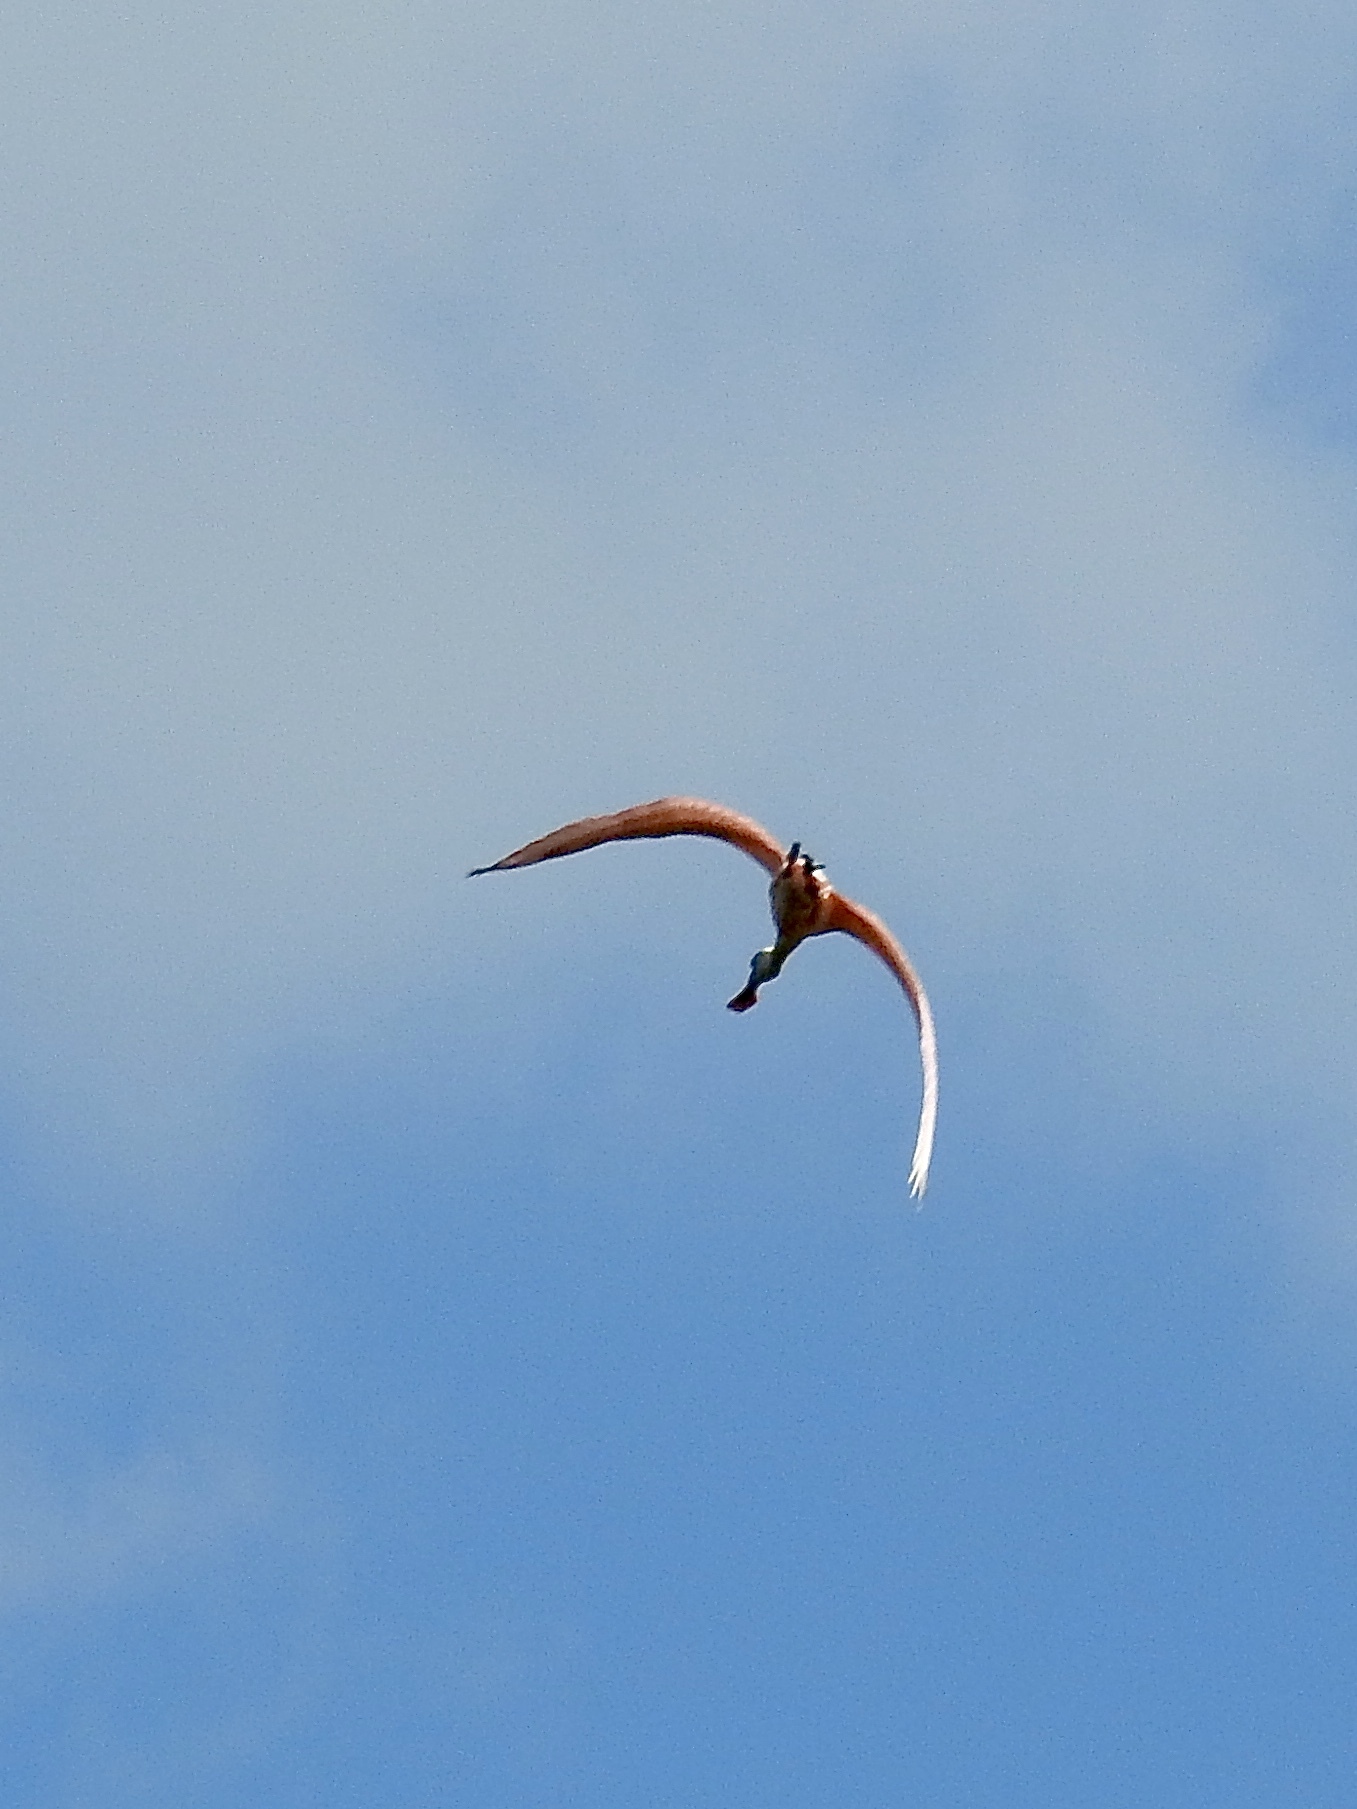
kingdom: Animalia
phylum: Chordata
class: Aves
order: Pelecaniformes
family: Threskiornithidae
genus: Platalea
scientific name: Platalea ajaja
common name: Roseate spoonbill
